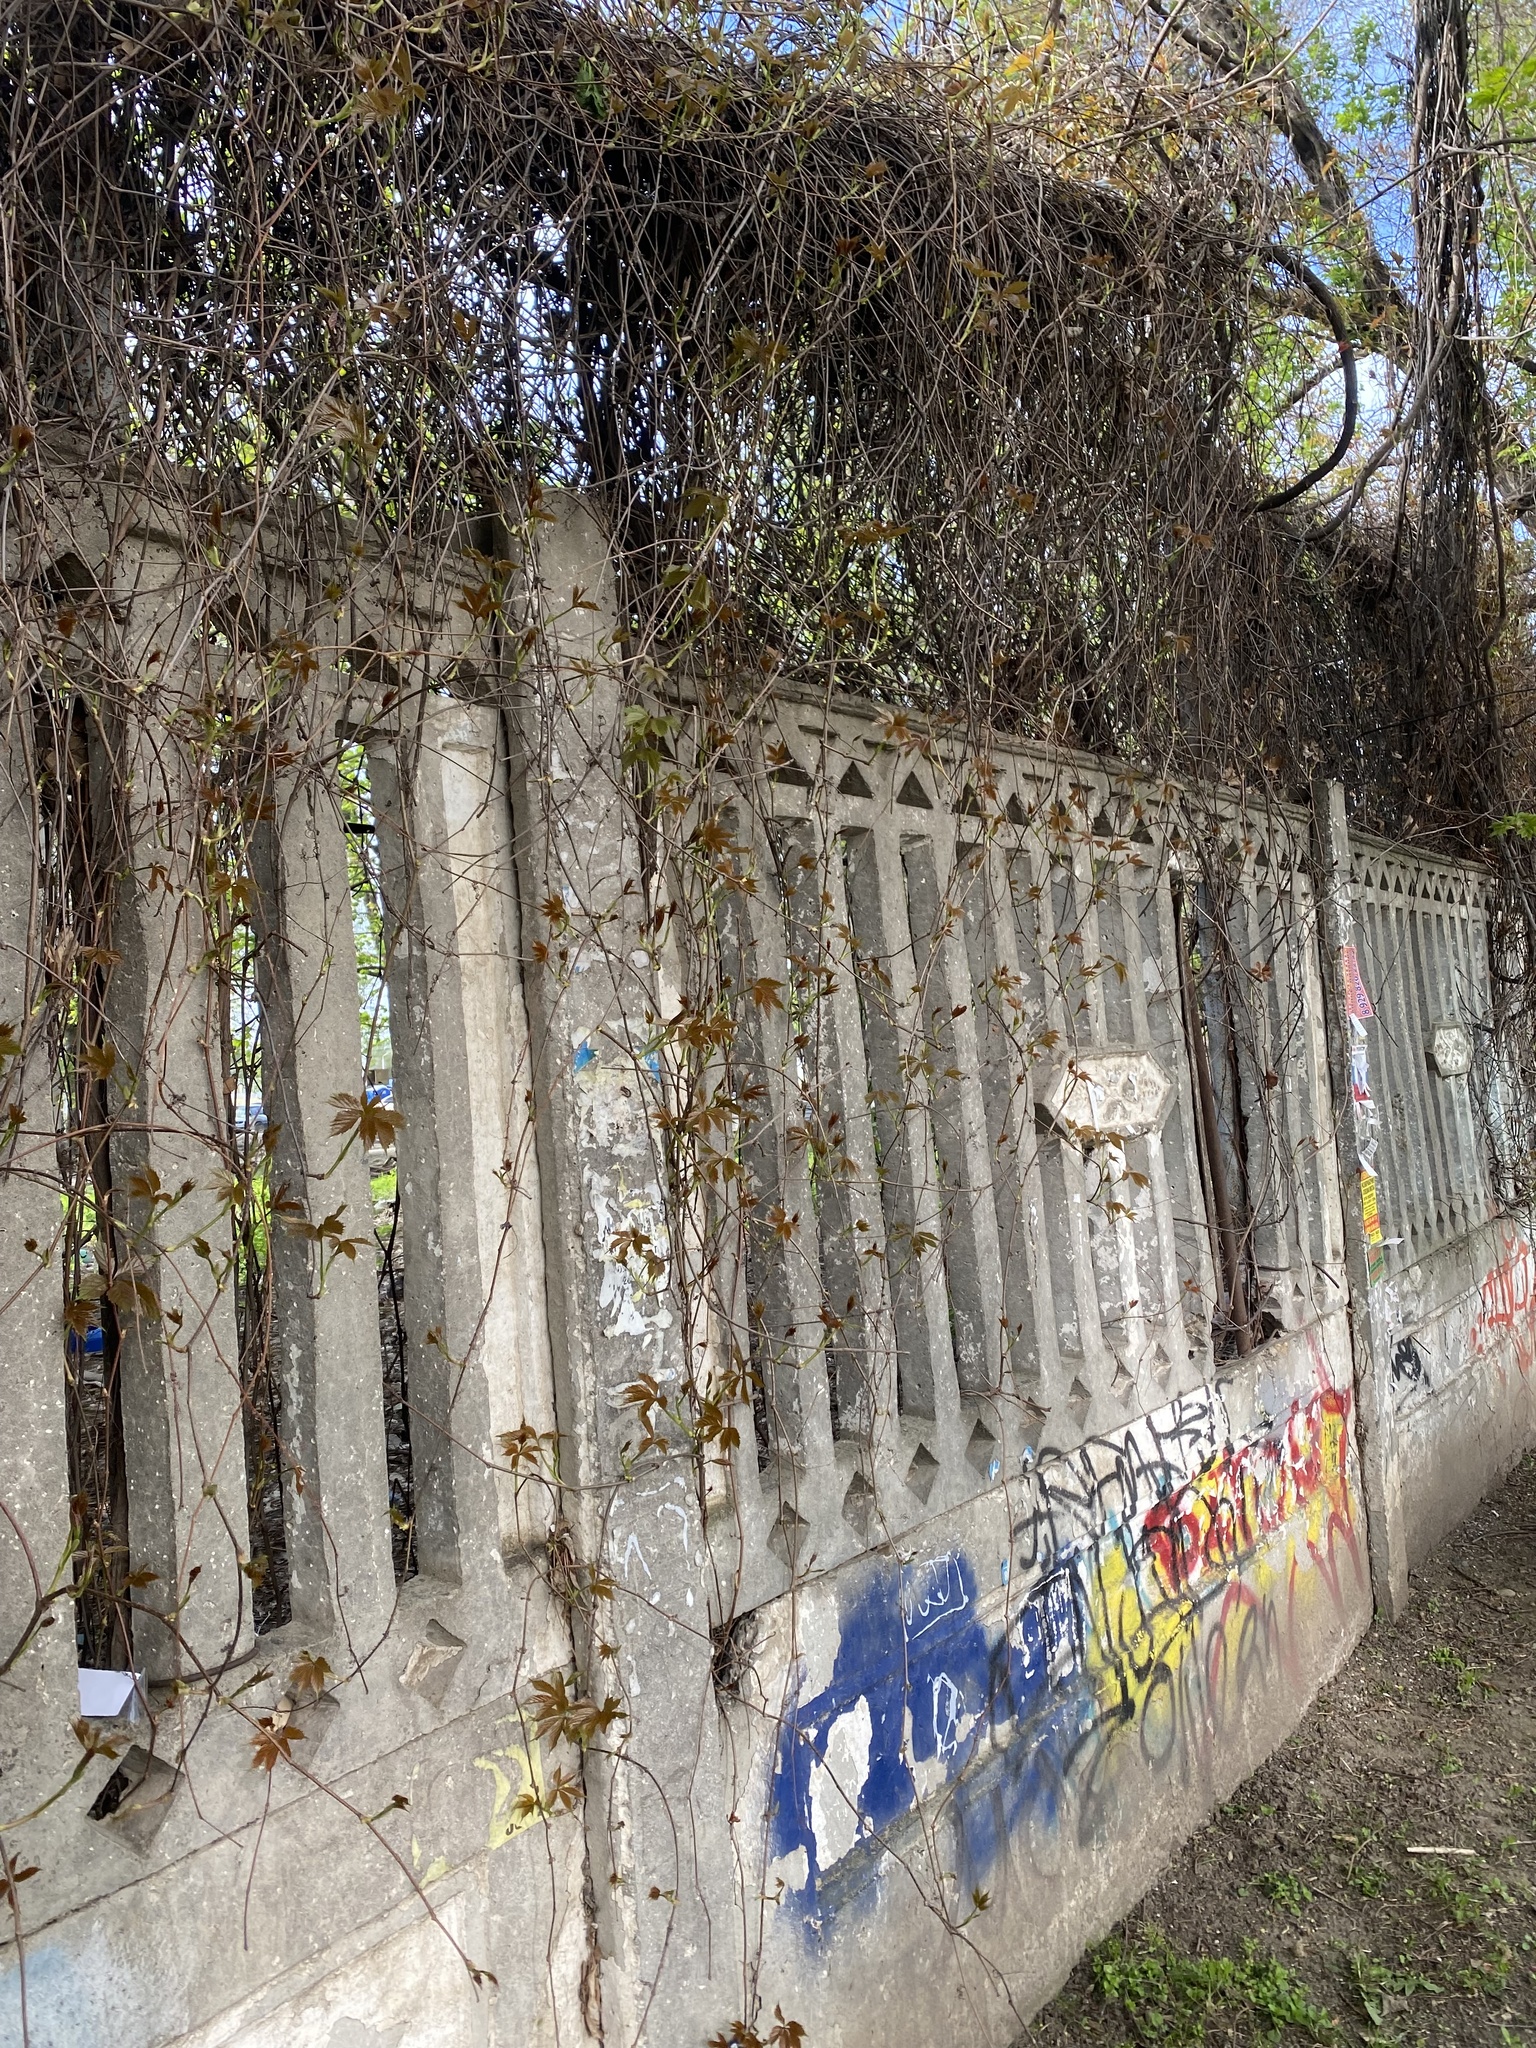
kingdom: Plantae
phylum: Tracheophyta
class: Magnoliopsida
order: Vitales
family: Vitaceae
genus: Parthenocissus
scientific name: Parthenocissus quinquefolia
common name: Virginia-creeper
